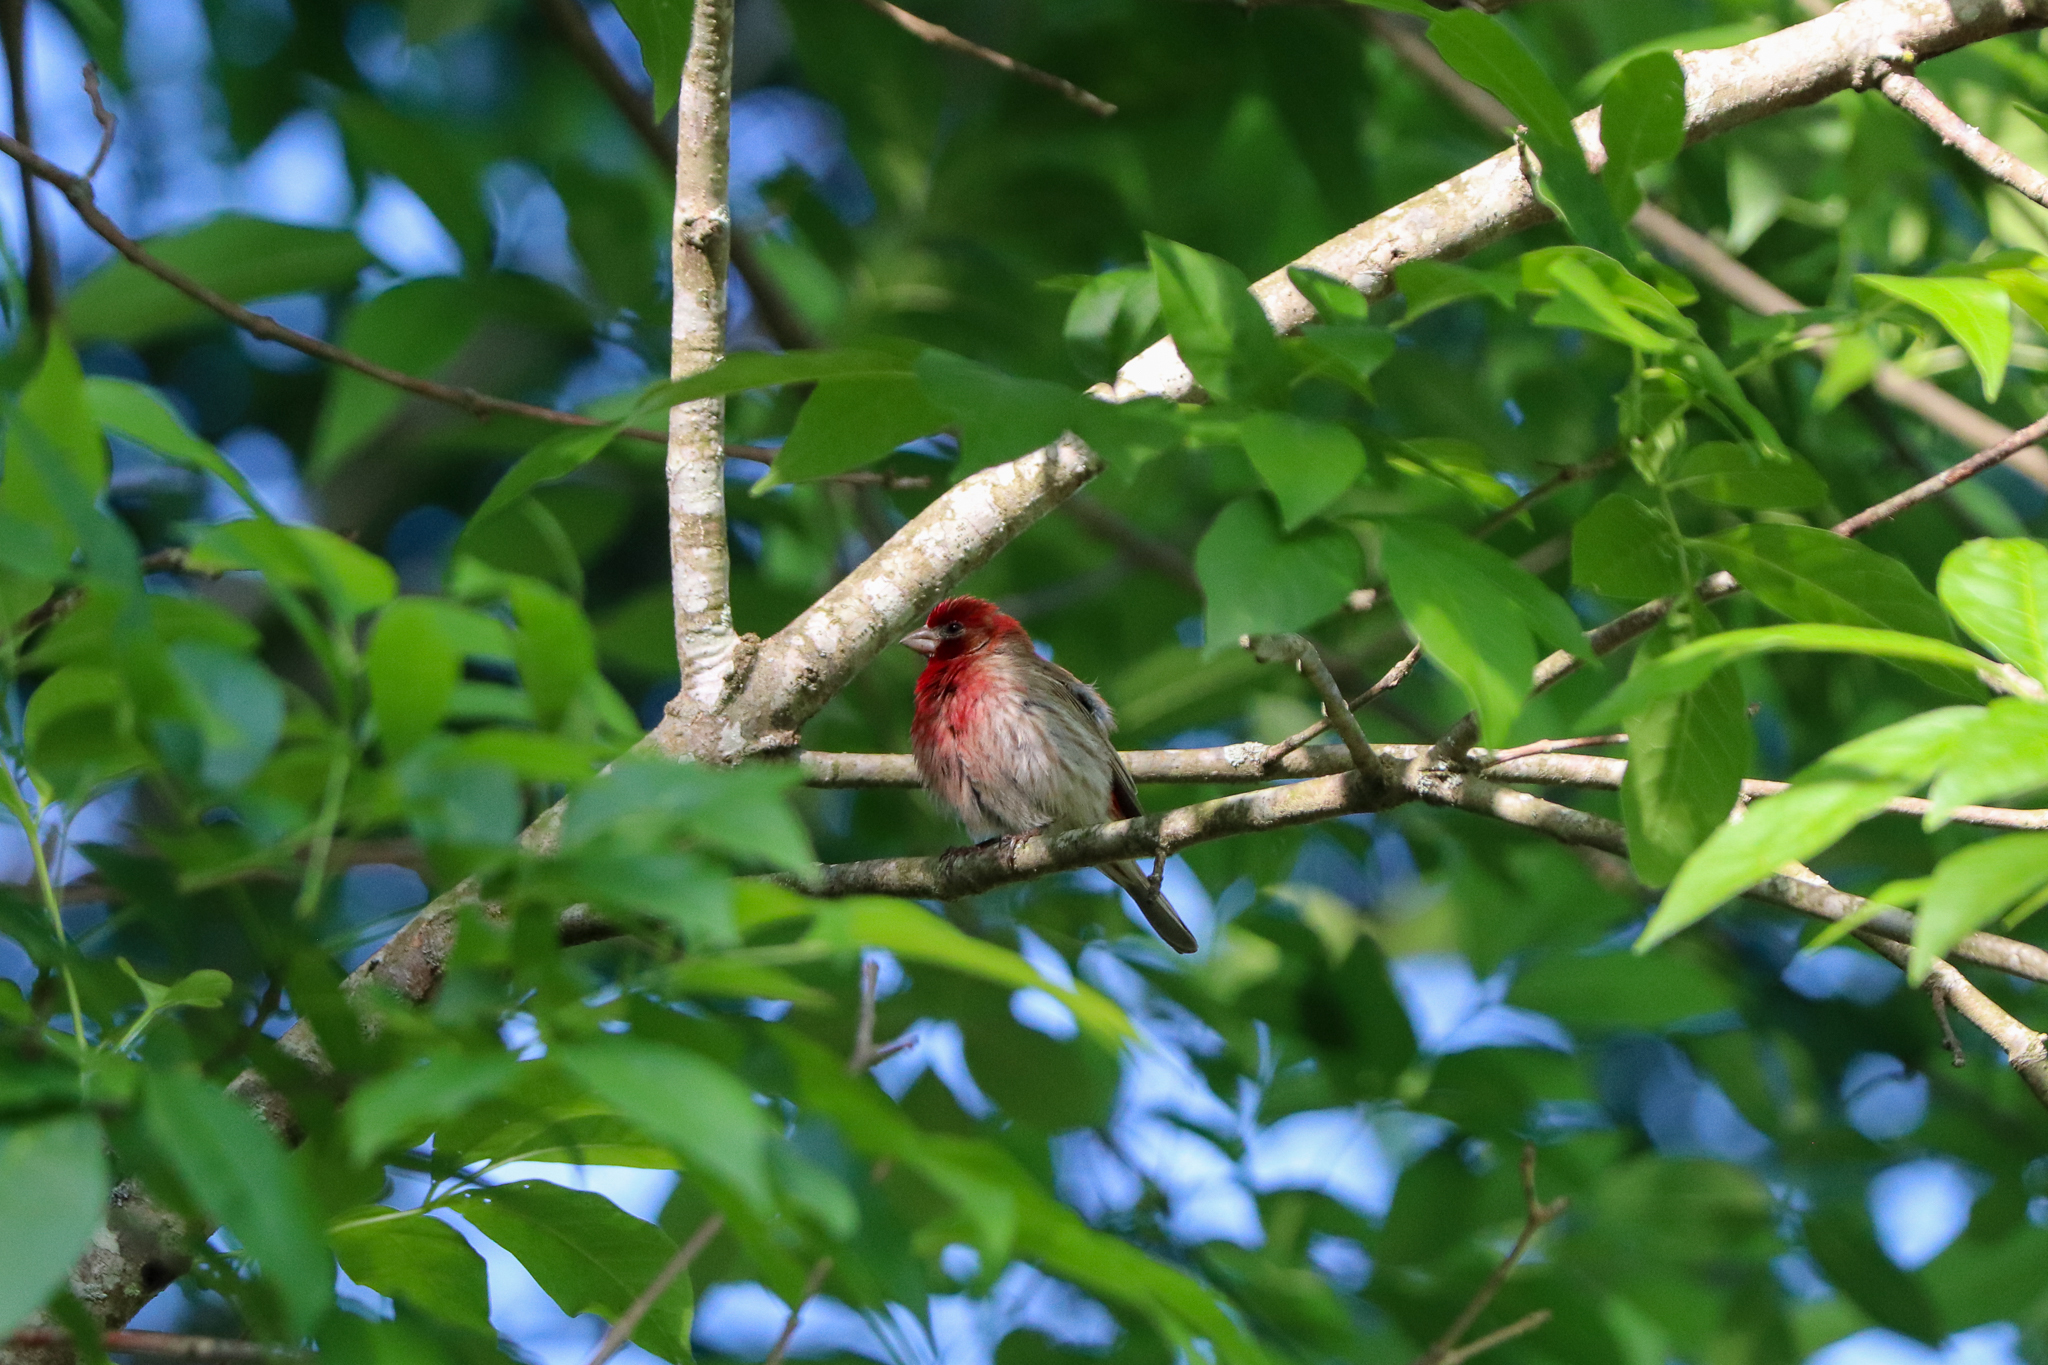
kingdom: Animalia
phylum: Chordata
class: Aves
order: Passeriformes
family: Fringillidae
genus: Haemorhous
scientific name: Haemorhous mexicanus
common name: House finch
